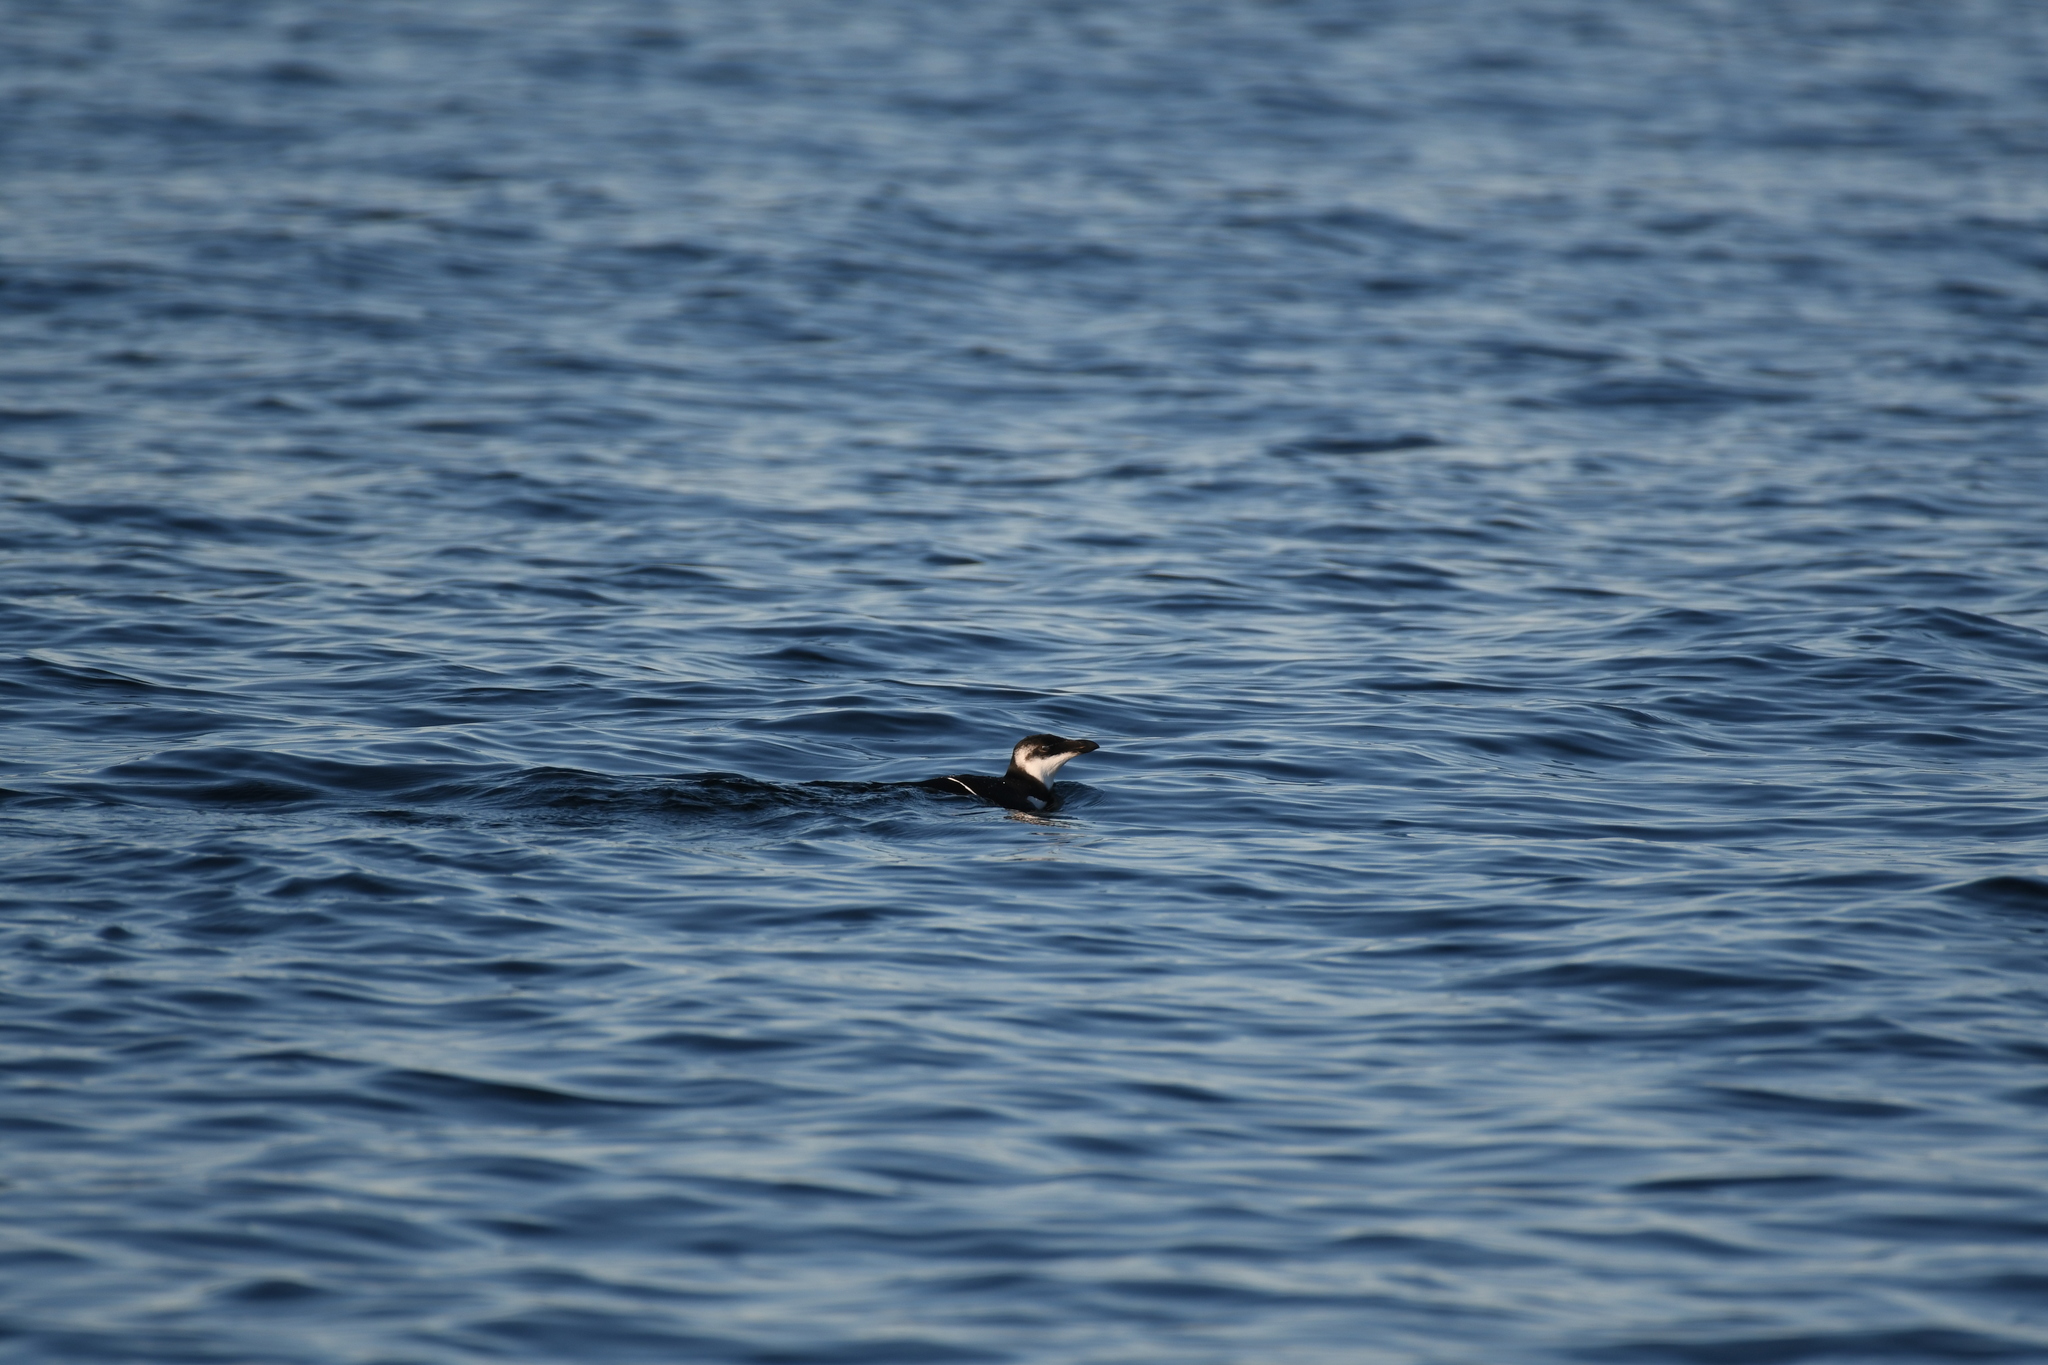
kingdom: Animalia
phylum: Chordata
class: Aves
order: Charadriiformes
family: Alcidae
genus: Alca
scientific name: Alca torda
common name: Razorbill
